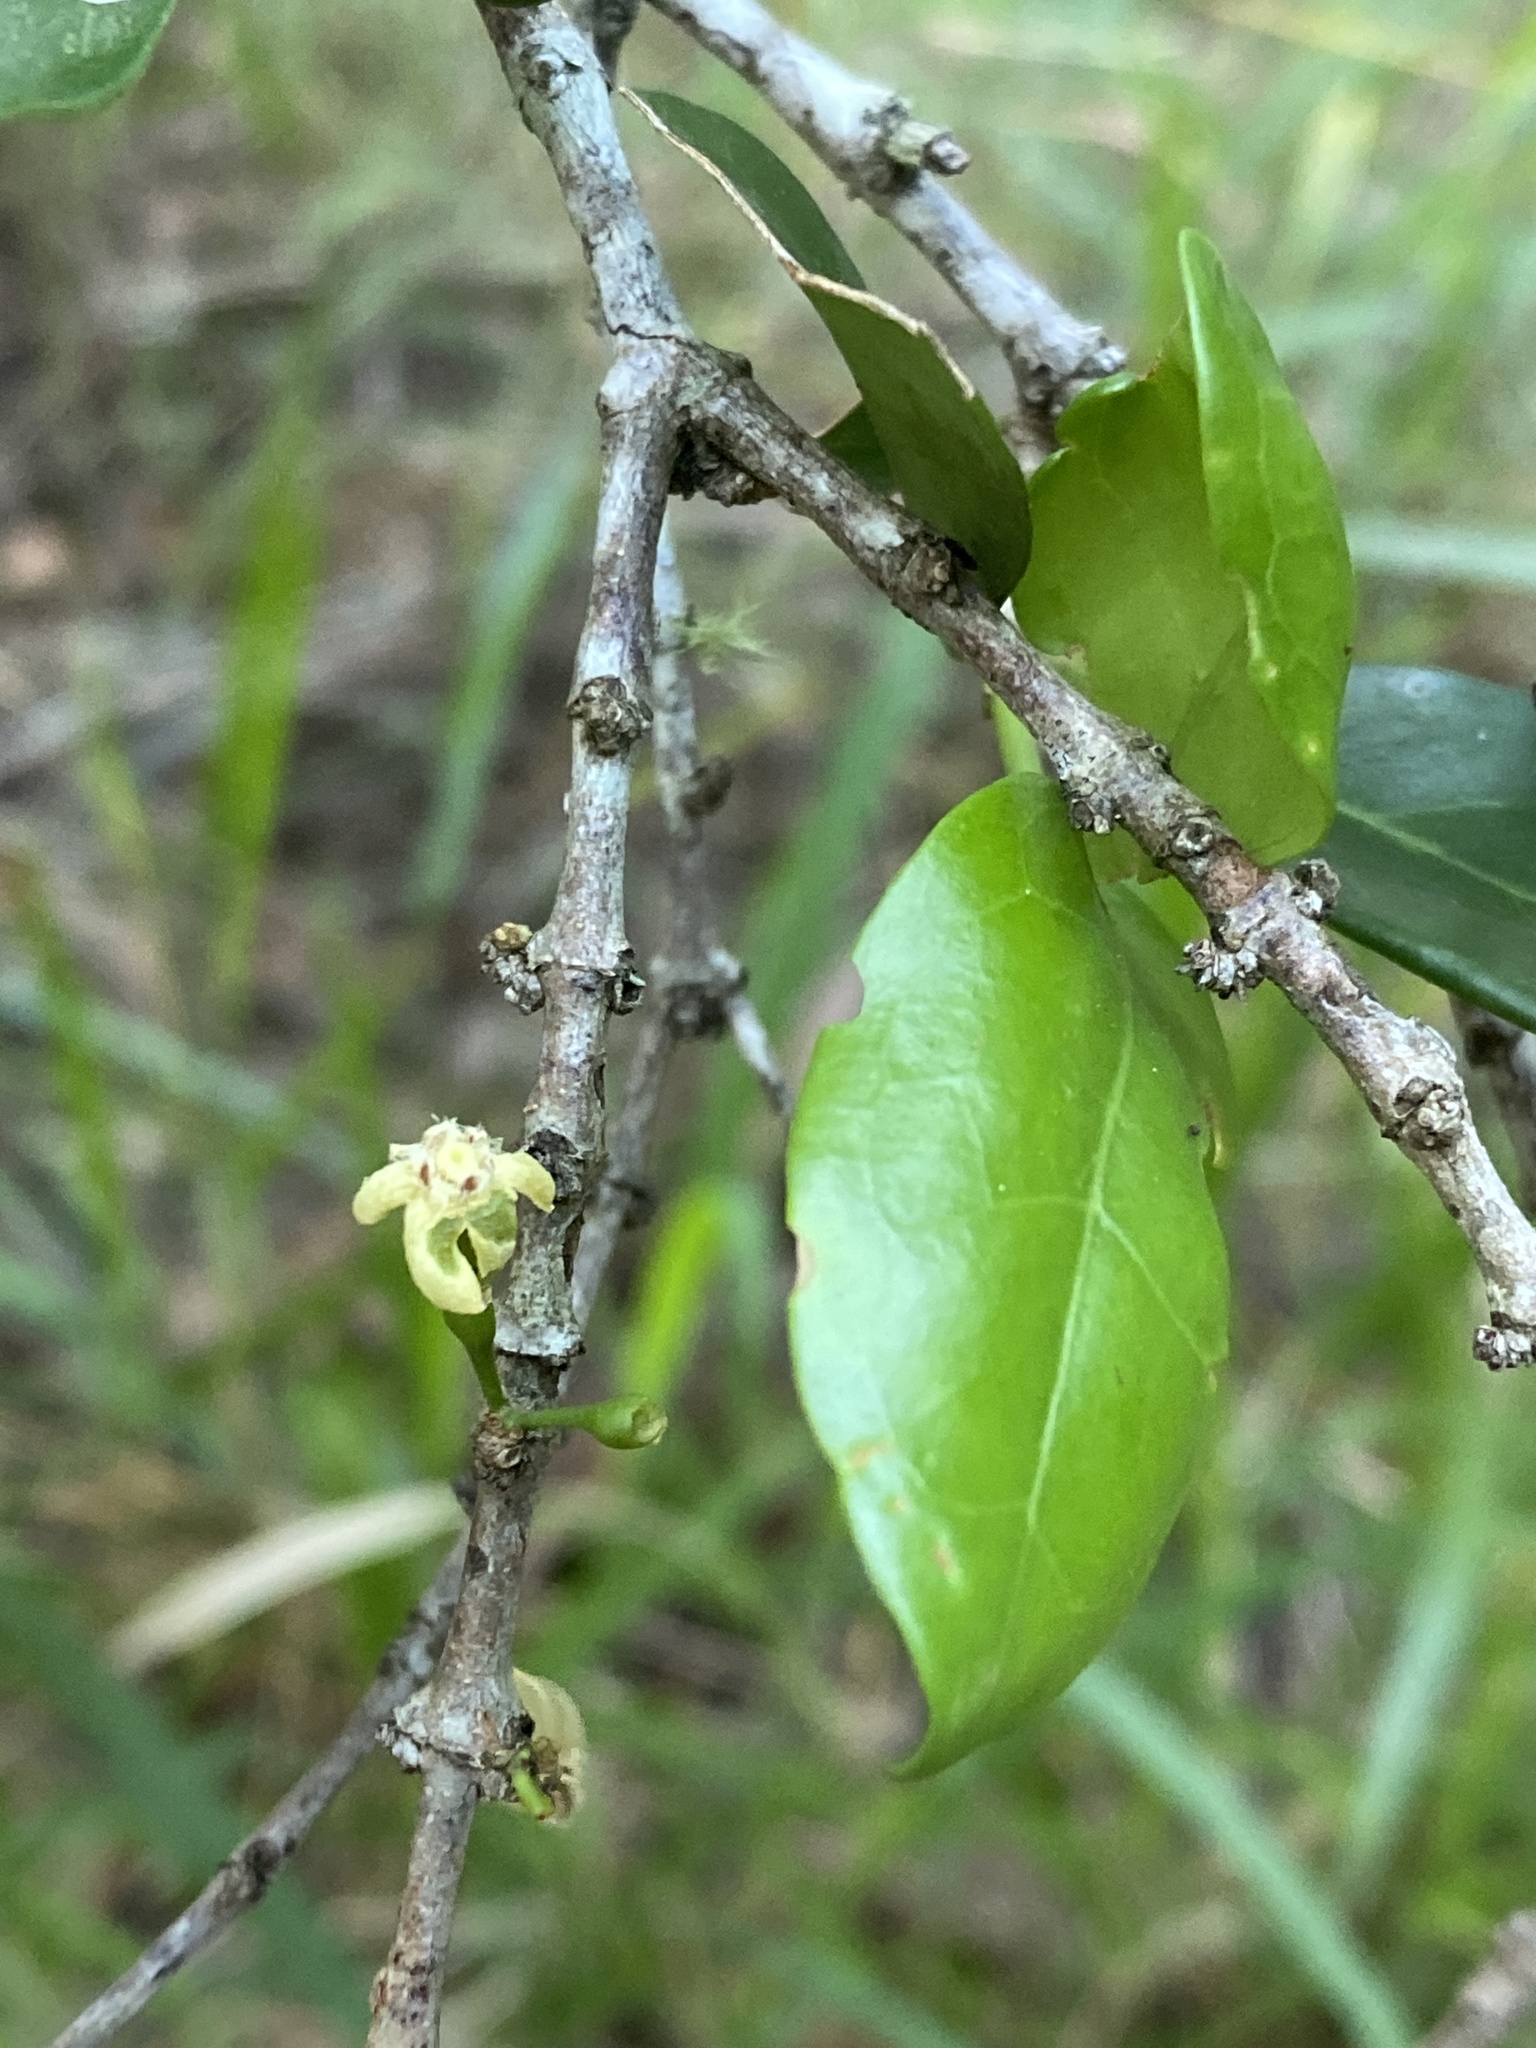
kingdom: Plantae
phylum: Tracheophyta
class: Magnoliopsida
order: Gentianales
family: Rubiaceae
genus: Cyclophyllum
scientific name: Cyclophyllum coprosmoides
